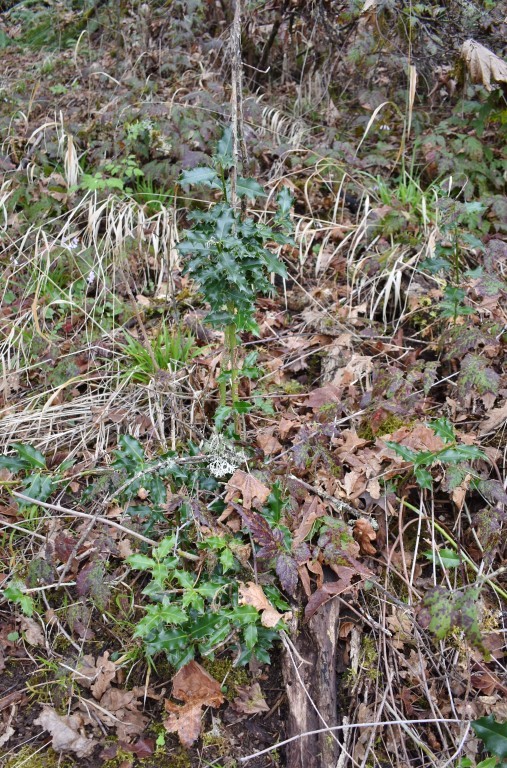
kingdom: Plantae
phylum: Tracheophyta
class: Magnoliopsida
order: Aquifoliales
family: Aquifoliaceae
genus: Ilex
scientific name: Ilex aquifolium
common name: English holly
